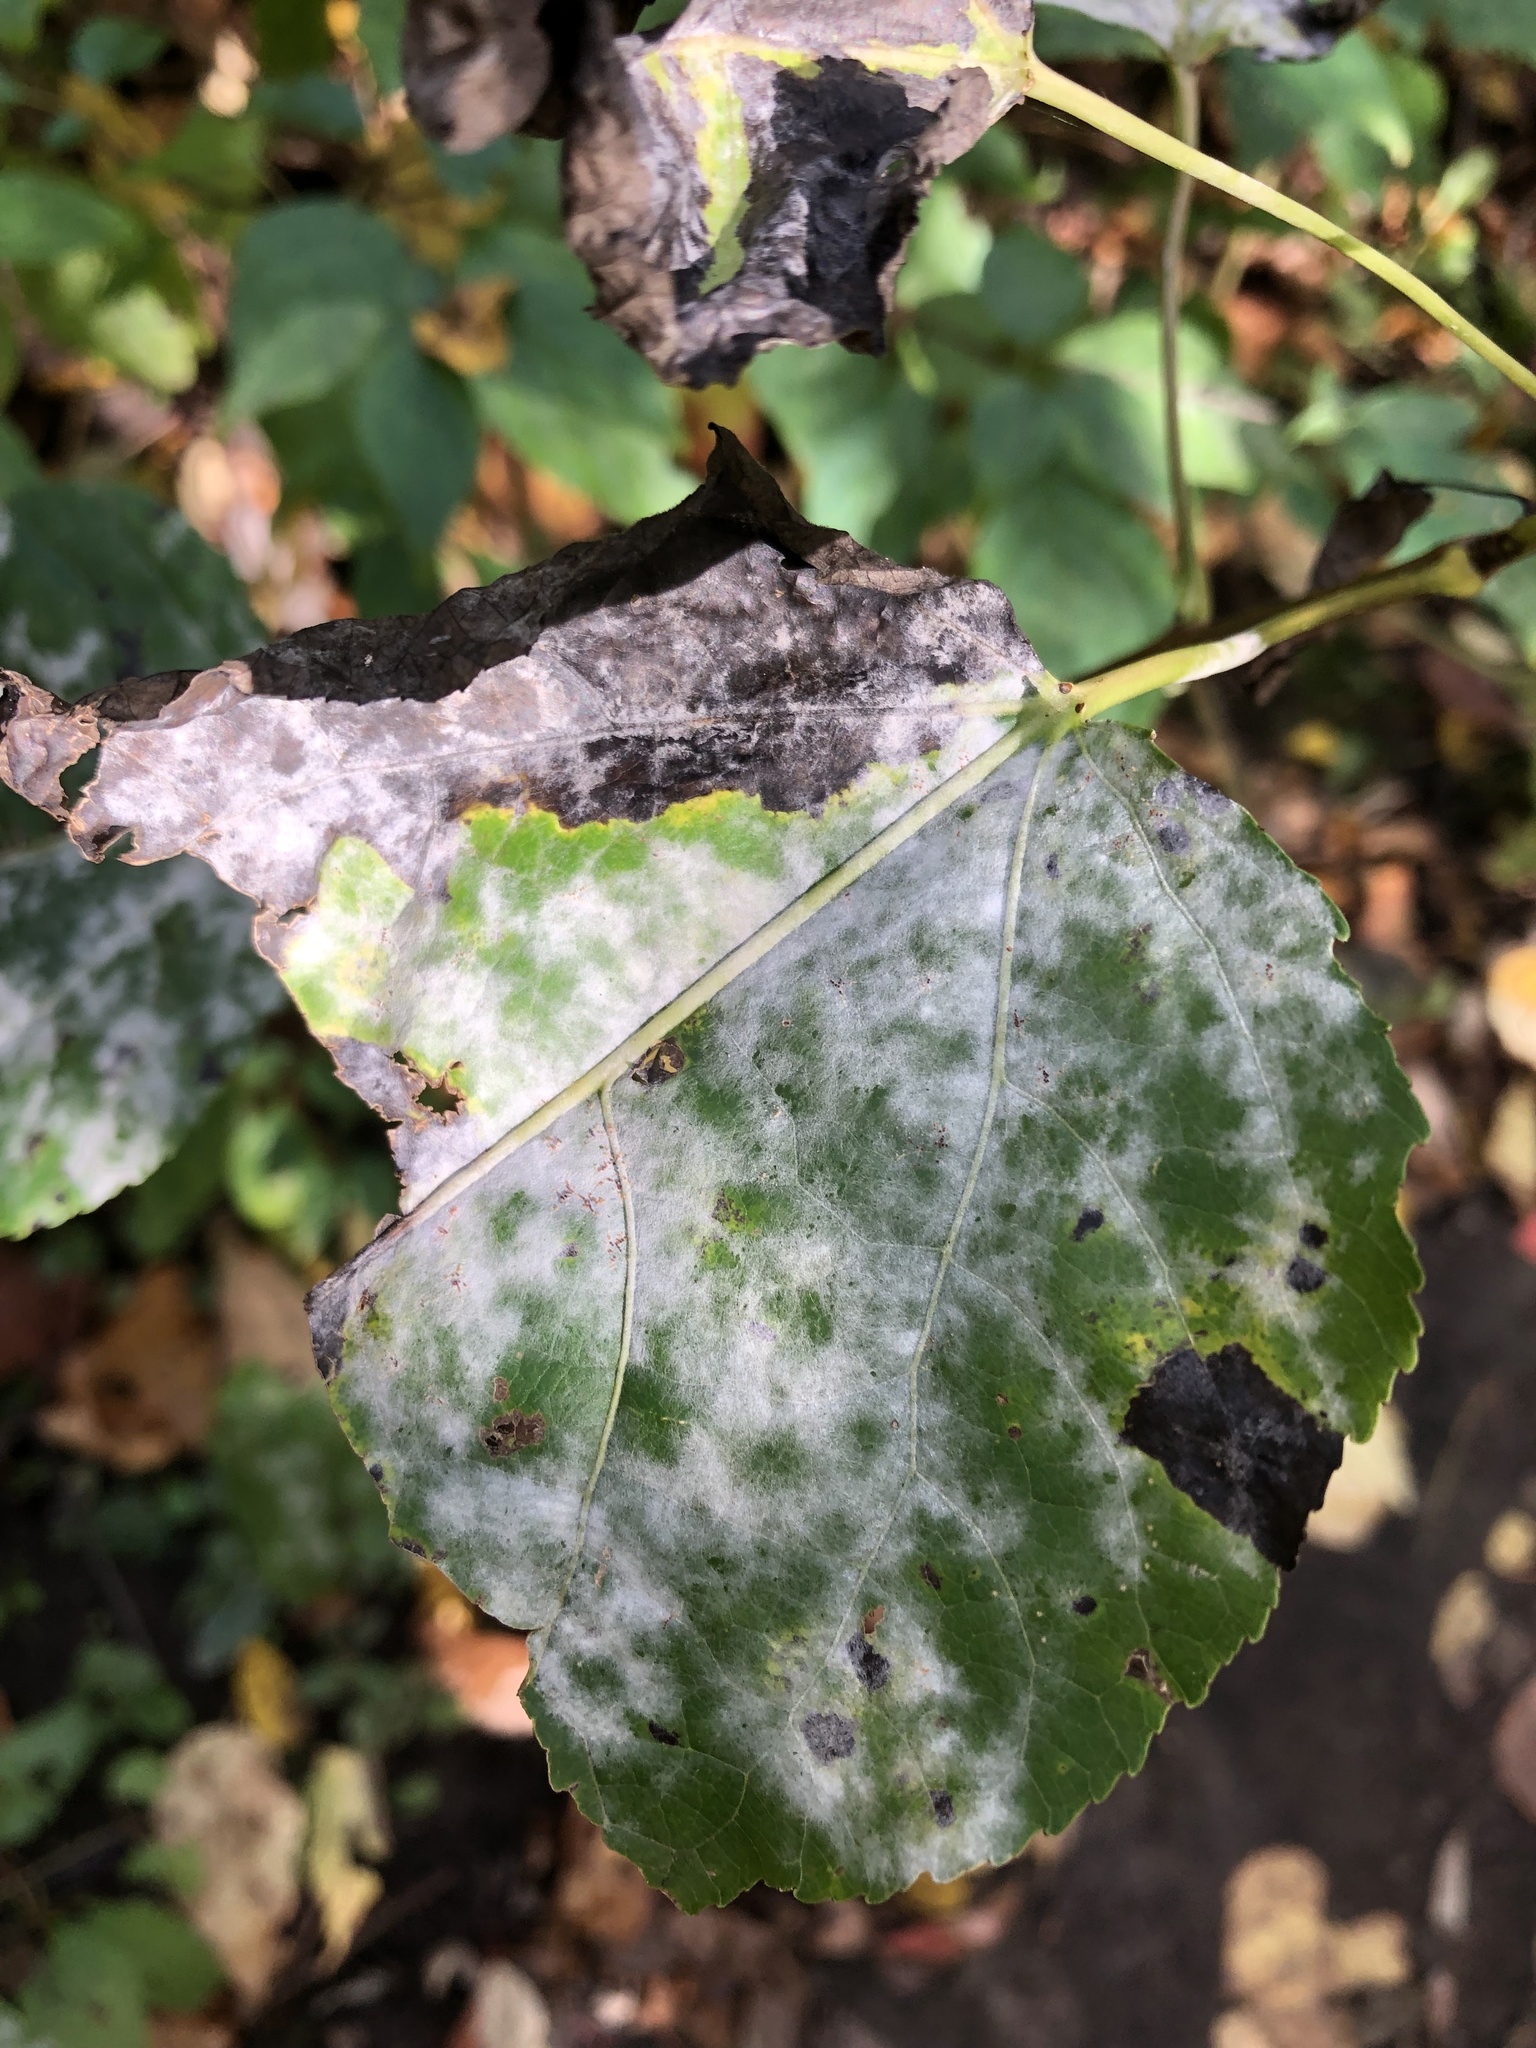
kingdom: Fungi
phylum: Ascomycota
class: Leotiomycetes
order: Helotiales
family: Erysiphaceae
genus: Erysiphe
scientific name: Erysiphe adunca
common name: Willow mildew
